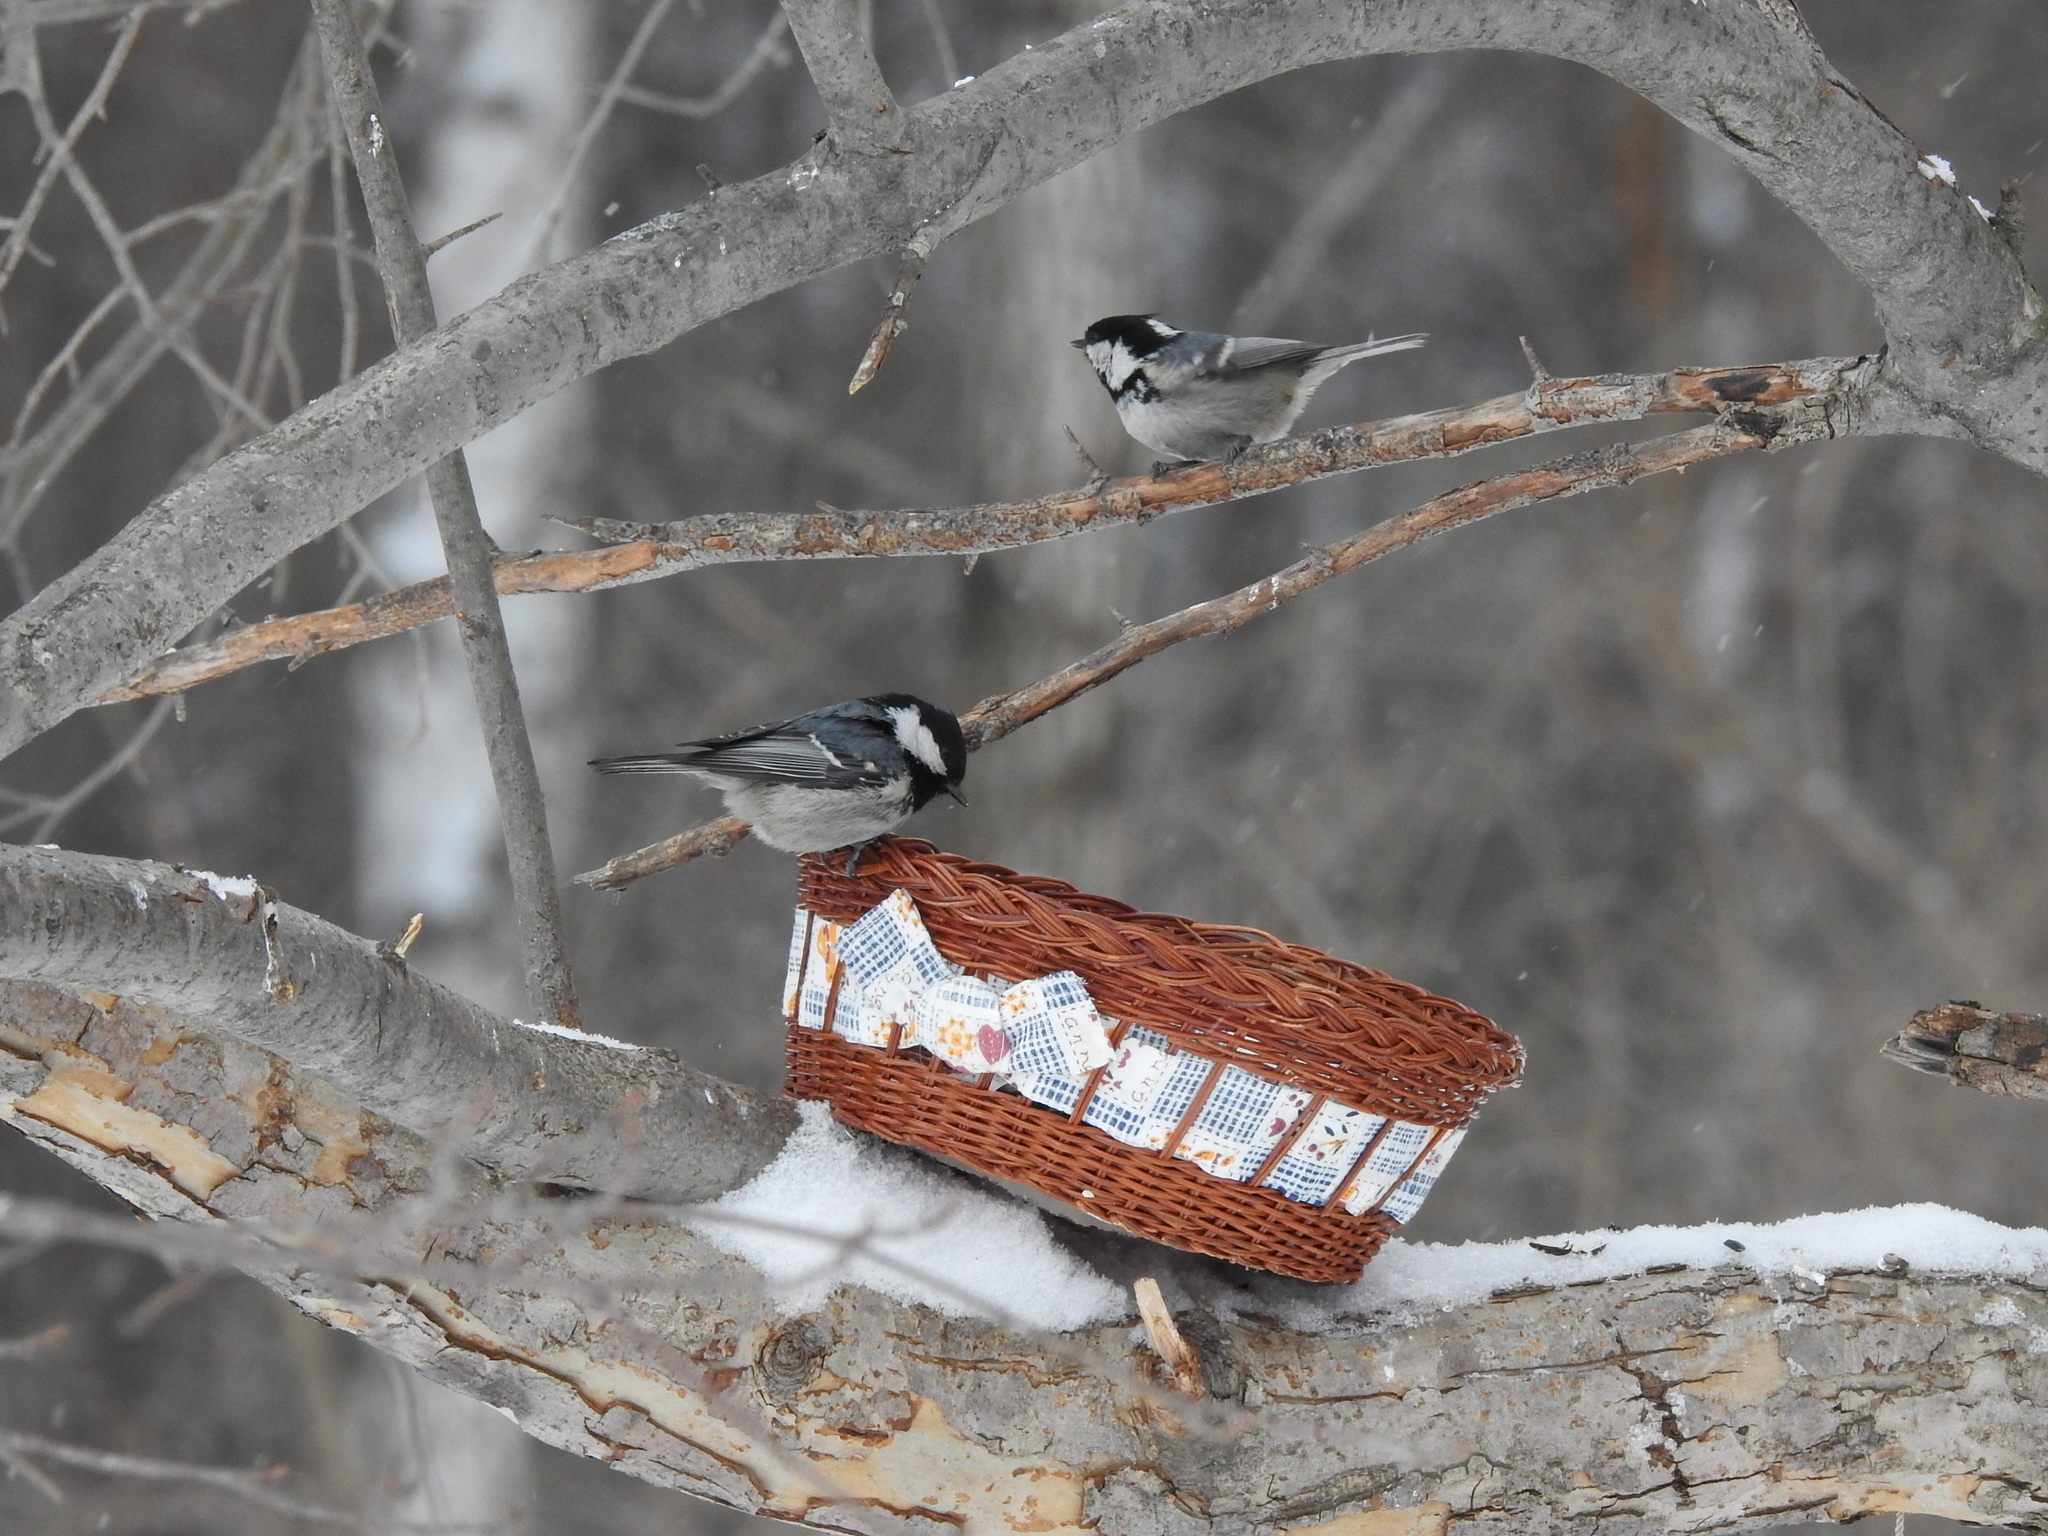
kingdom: Animalia
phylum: Chordata
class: Aves
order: Passeriformes
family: Paridae
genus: Periparus
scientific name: Periparus ater
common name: Coal tit
